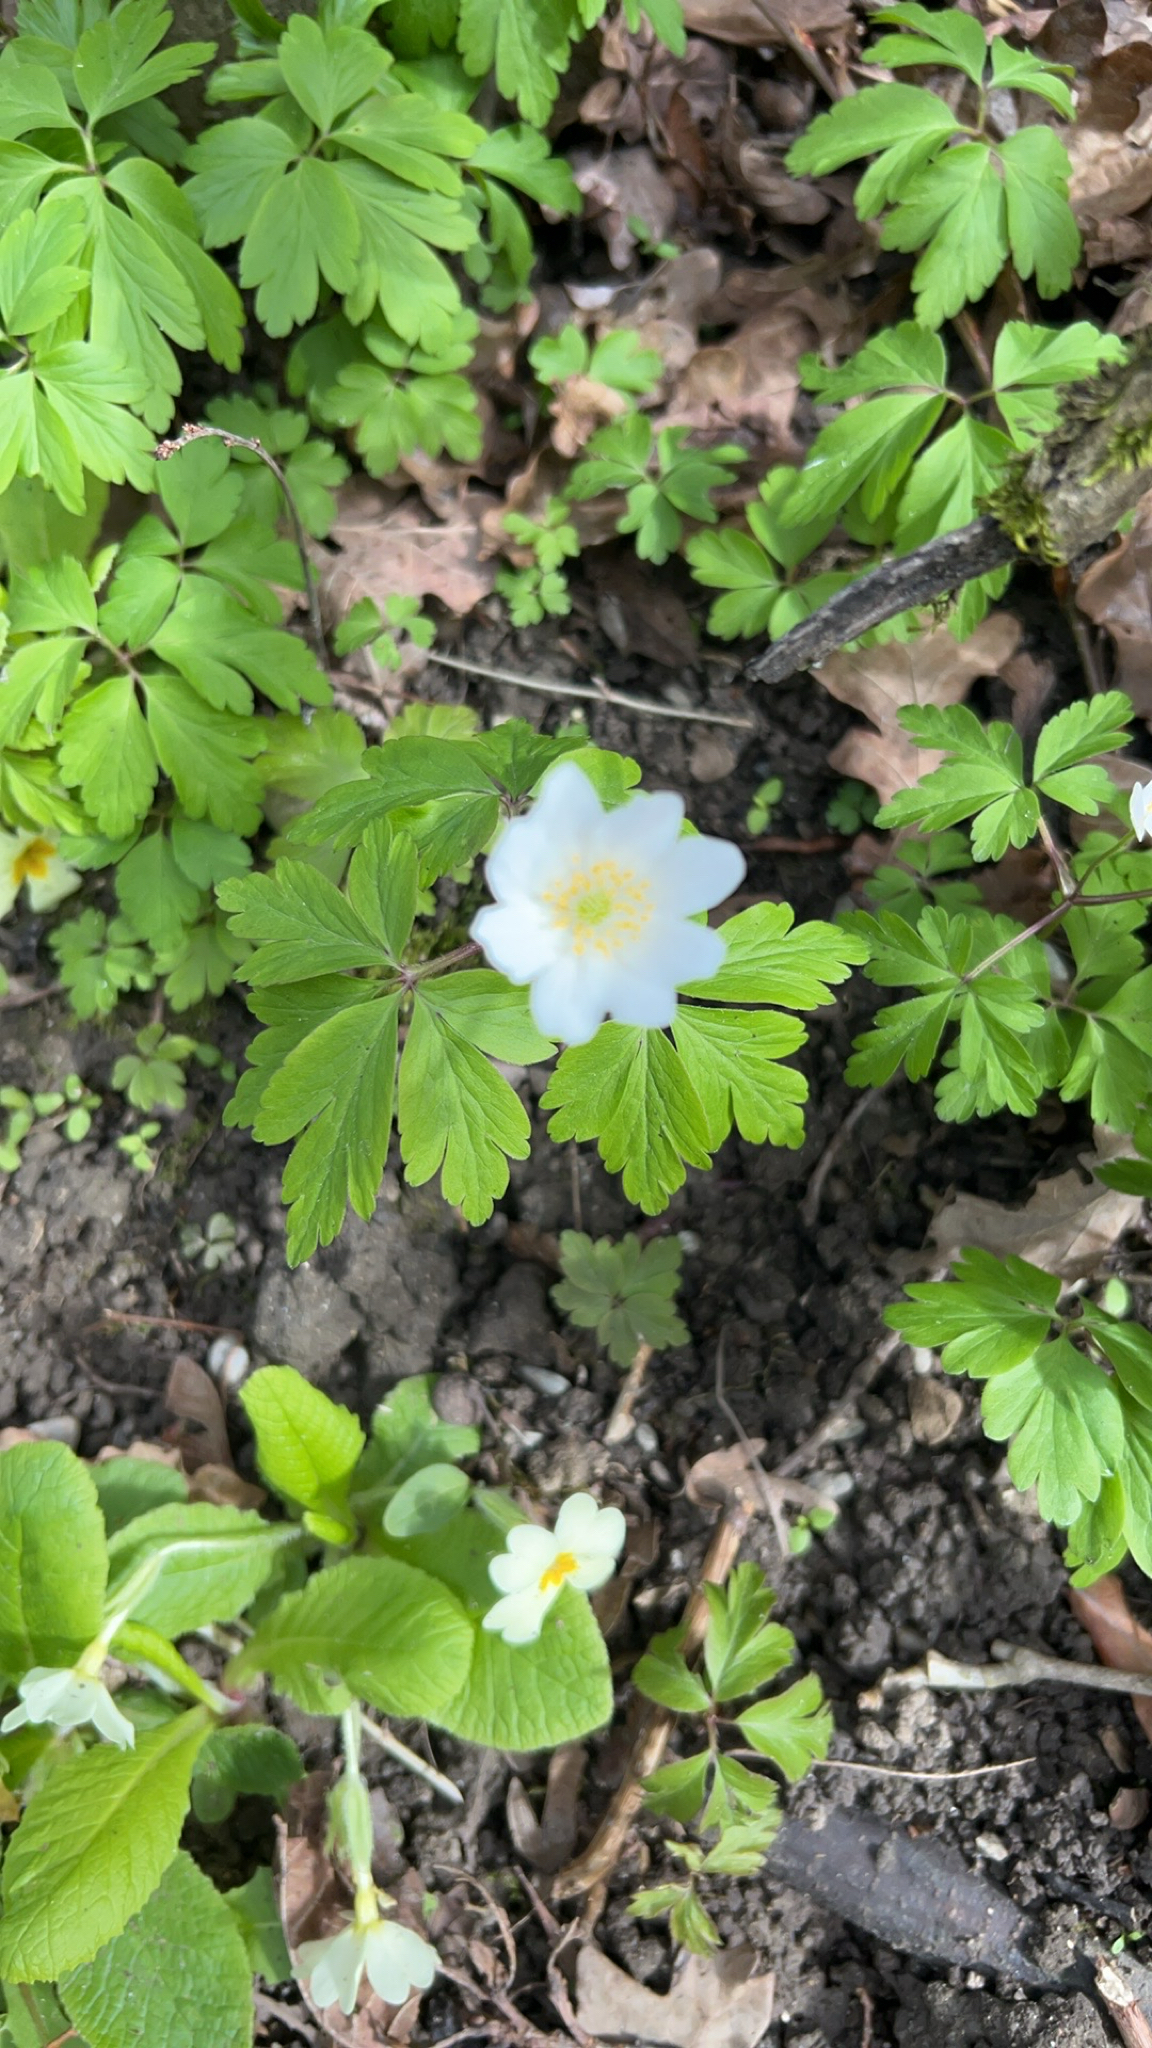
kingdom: Plantae
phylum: Tracheophyta
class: Magnoliopsida
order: Ranunculales
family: Ranunculaceae
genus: Anemone
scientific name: Anemone nemorosa
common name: Wood anemone
